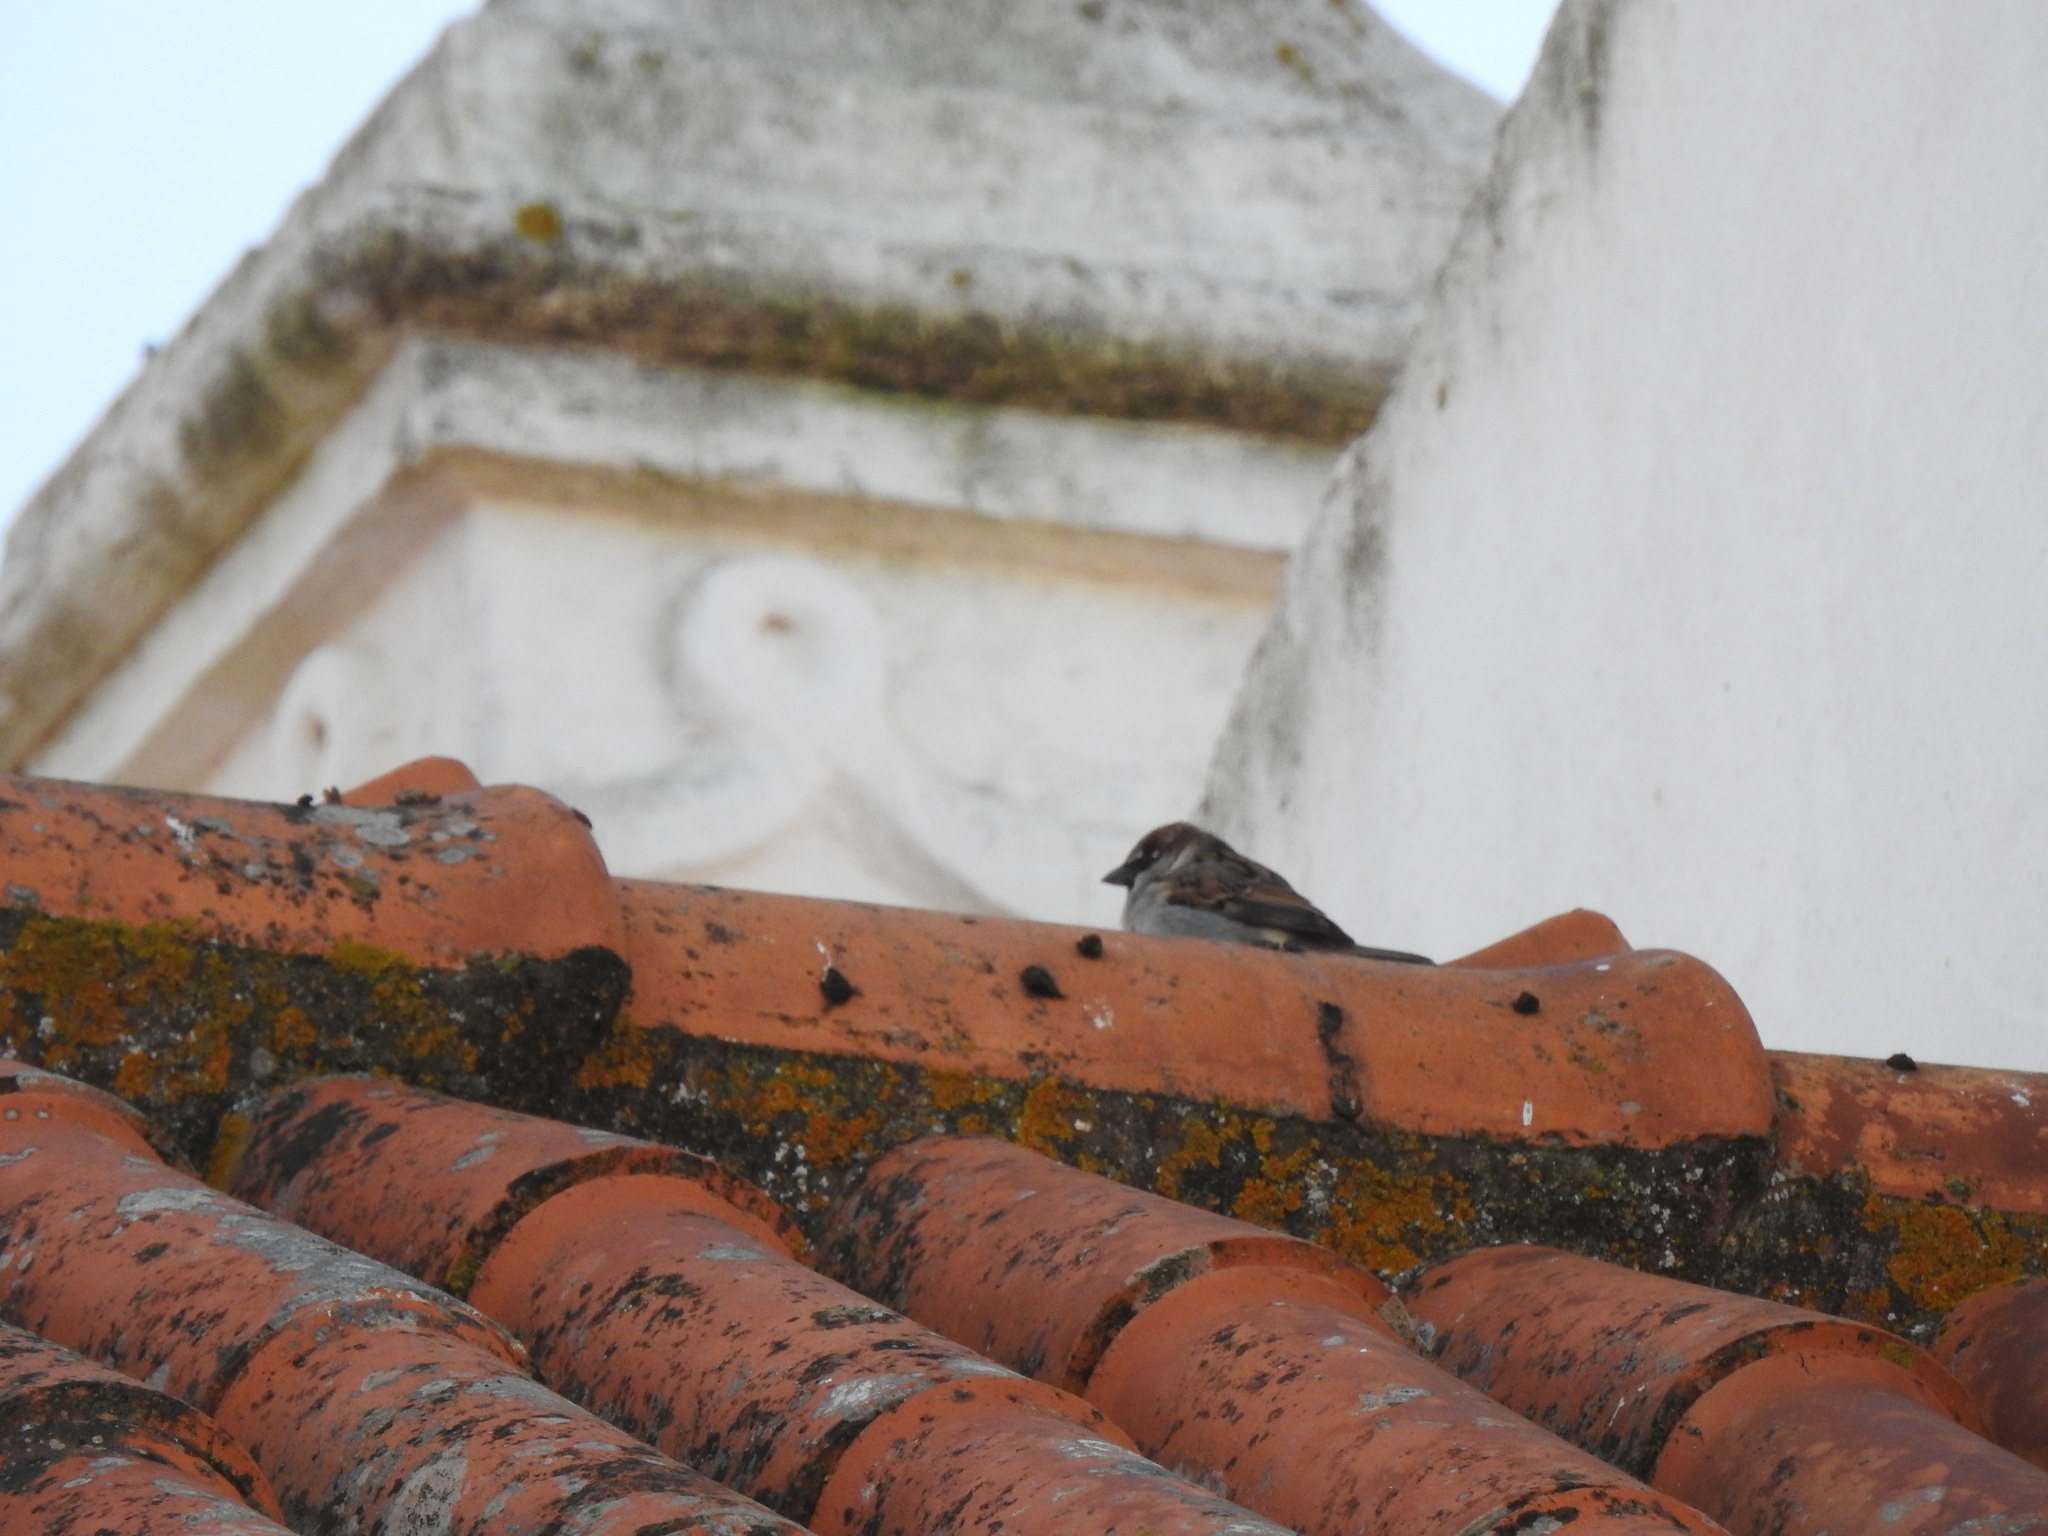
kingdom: Animalia
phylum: Chordata
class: Aves
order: Passeriformes
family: Passeridae
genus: Passer
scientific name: Passer domesticus
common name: House sparrow
